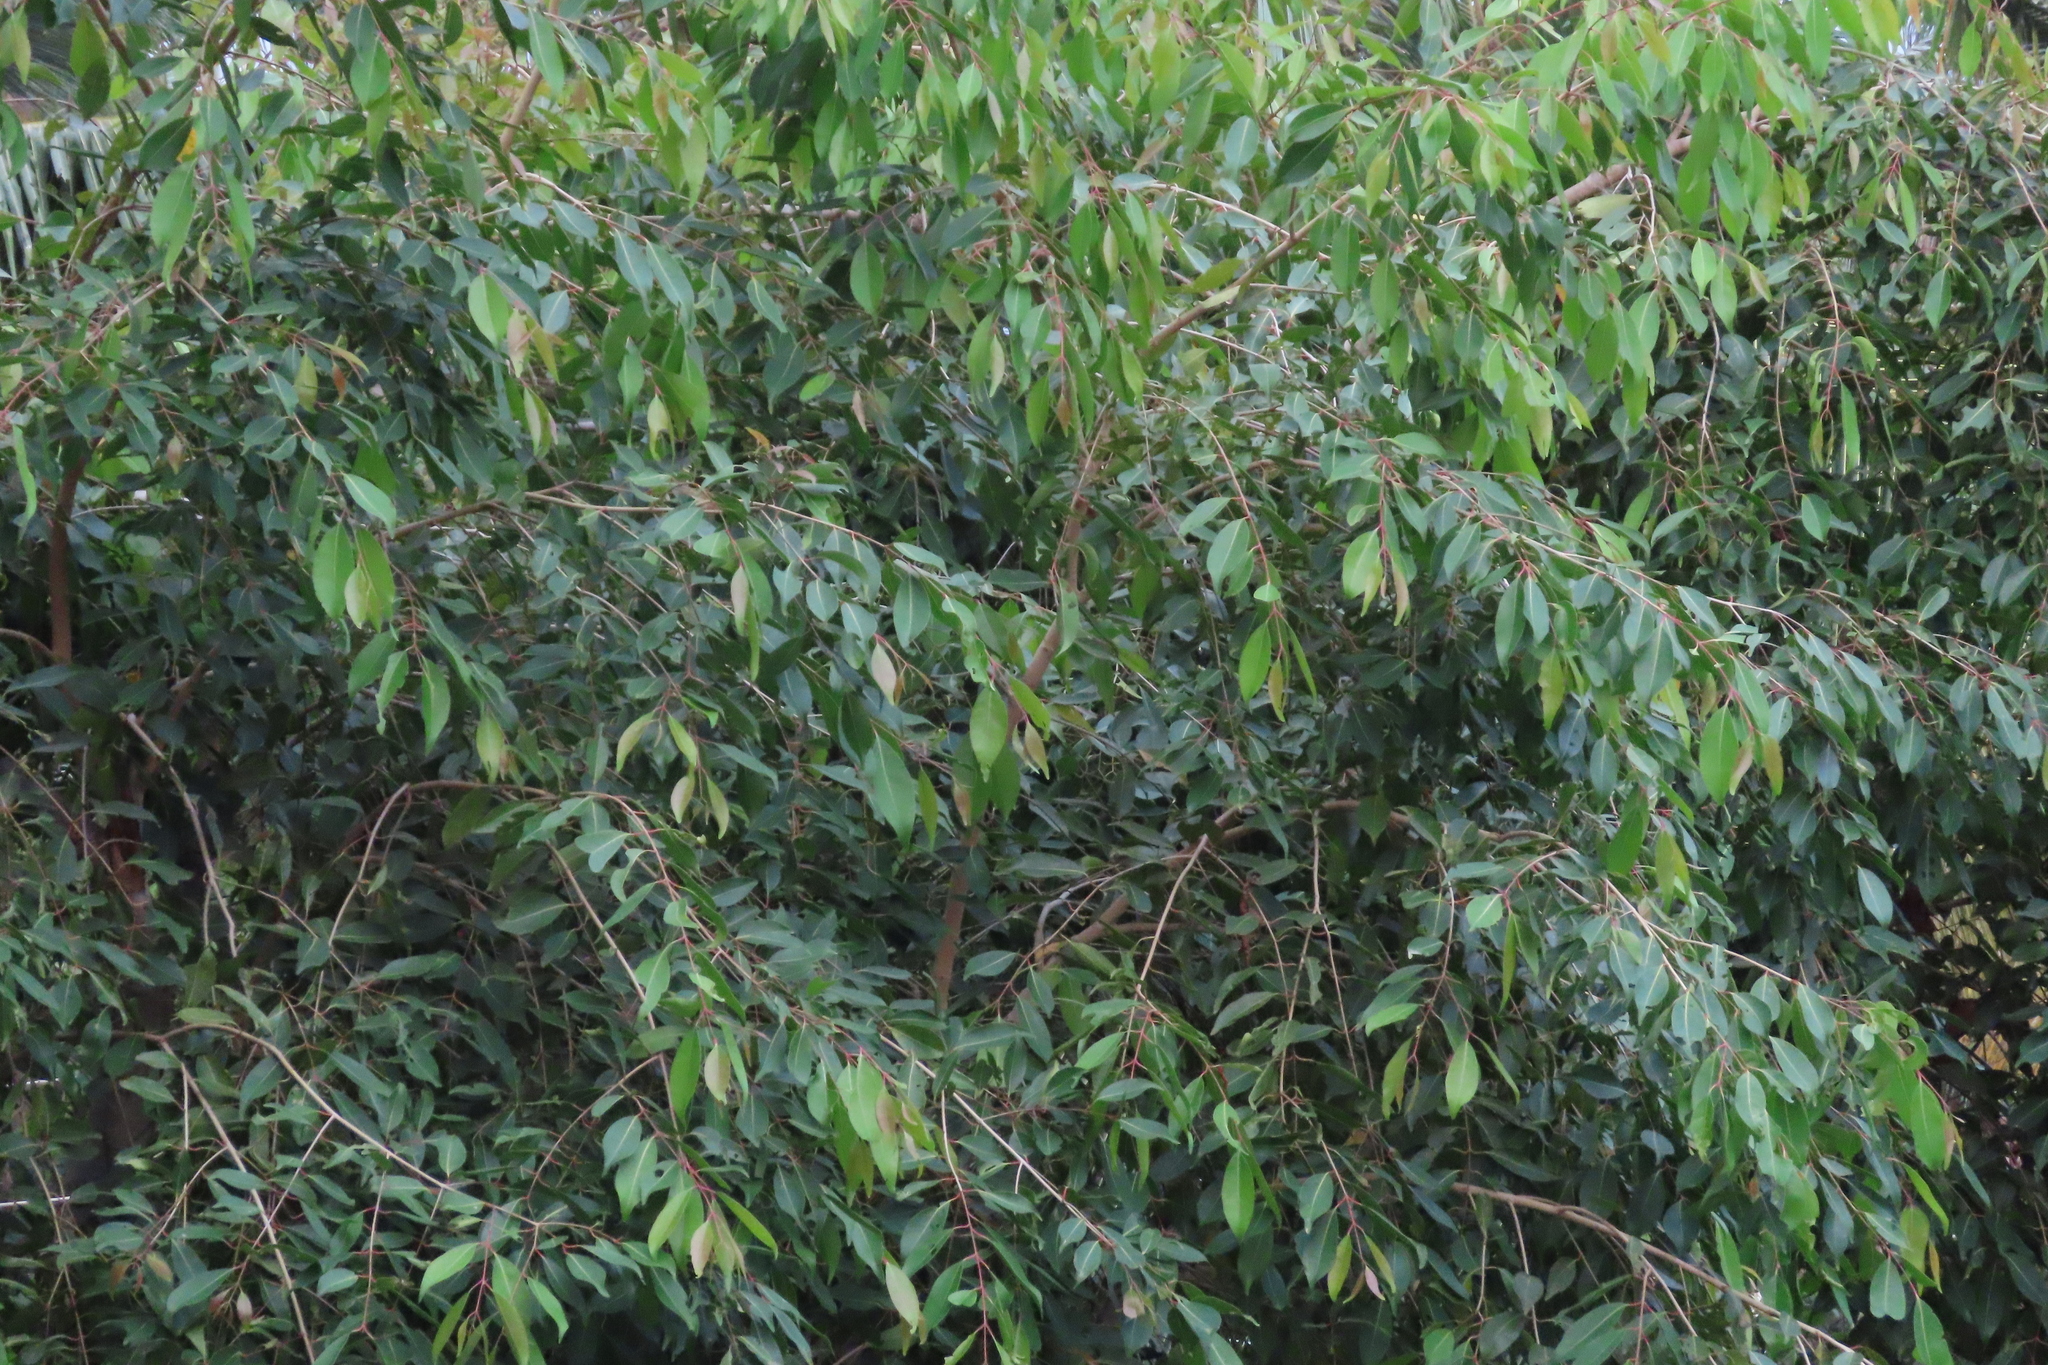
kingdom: Plantae
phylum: Tracheophyta
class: Magnoliopsida
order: Myrtales
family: Myrtaceae
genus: Syzygium
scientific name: Syzygium cumini
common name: Java plum
